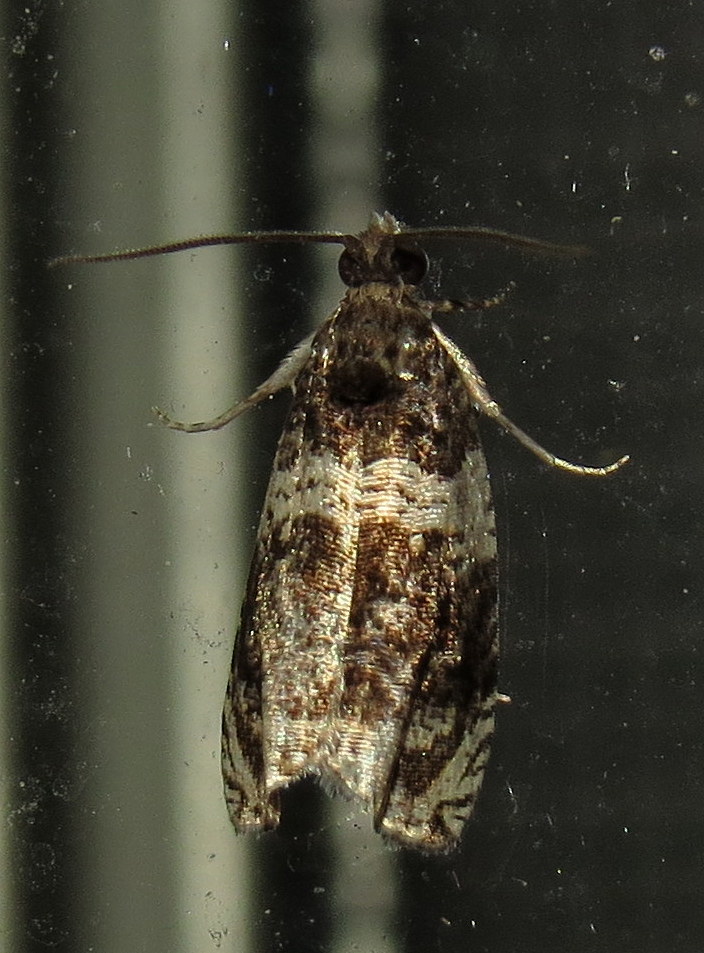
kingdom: Animalia
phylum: Arthropoda
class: Insecta
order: Lepidoptera
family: Tortricidae
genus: Olethreutes
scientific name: Olethreutes fasciatana
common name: Banded olethreutes moth
